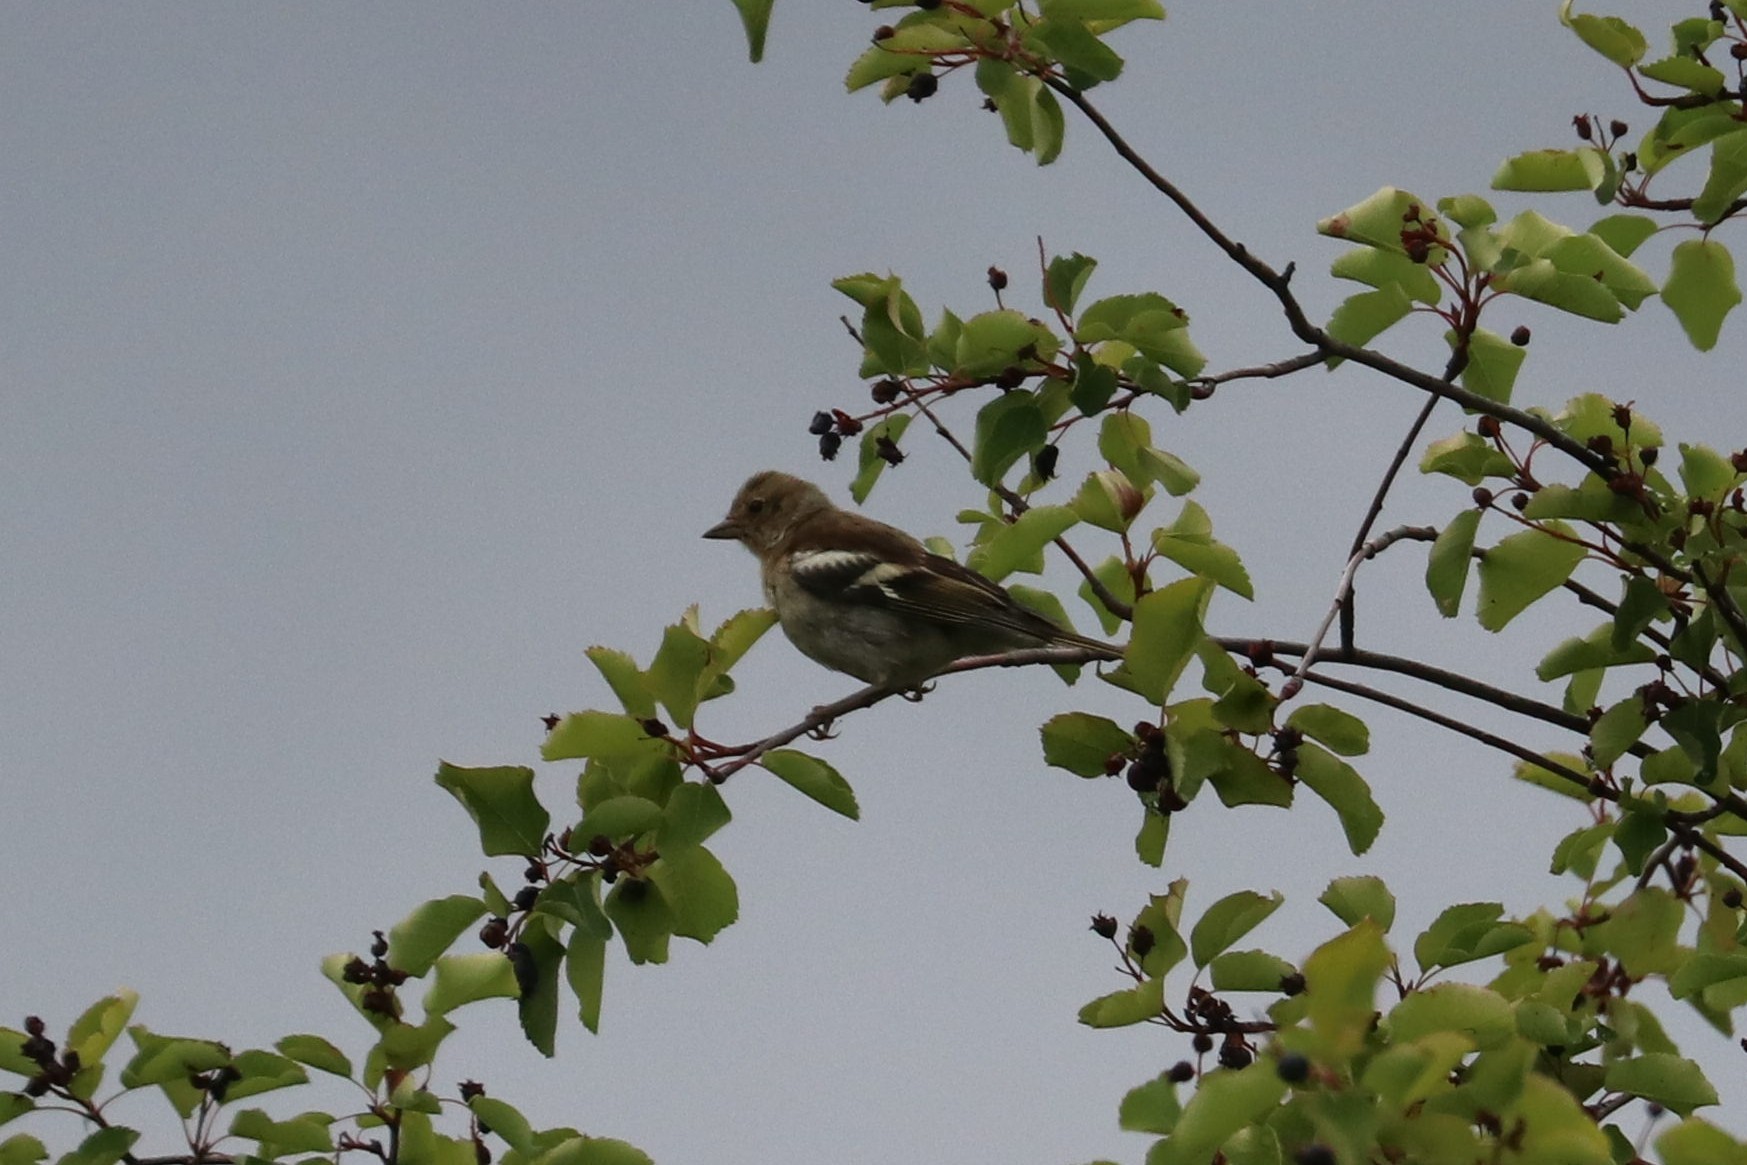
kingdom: Animalia
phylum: Chordata
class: Aves
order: Passeriformes
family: Fringillidae
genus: Fringilla
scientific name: Fringilla coelebs
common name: Common chaffinch
